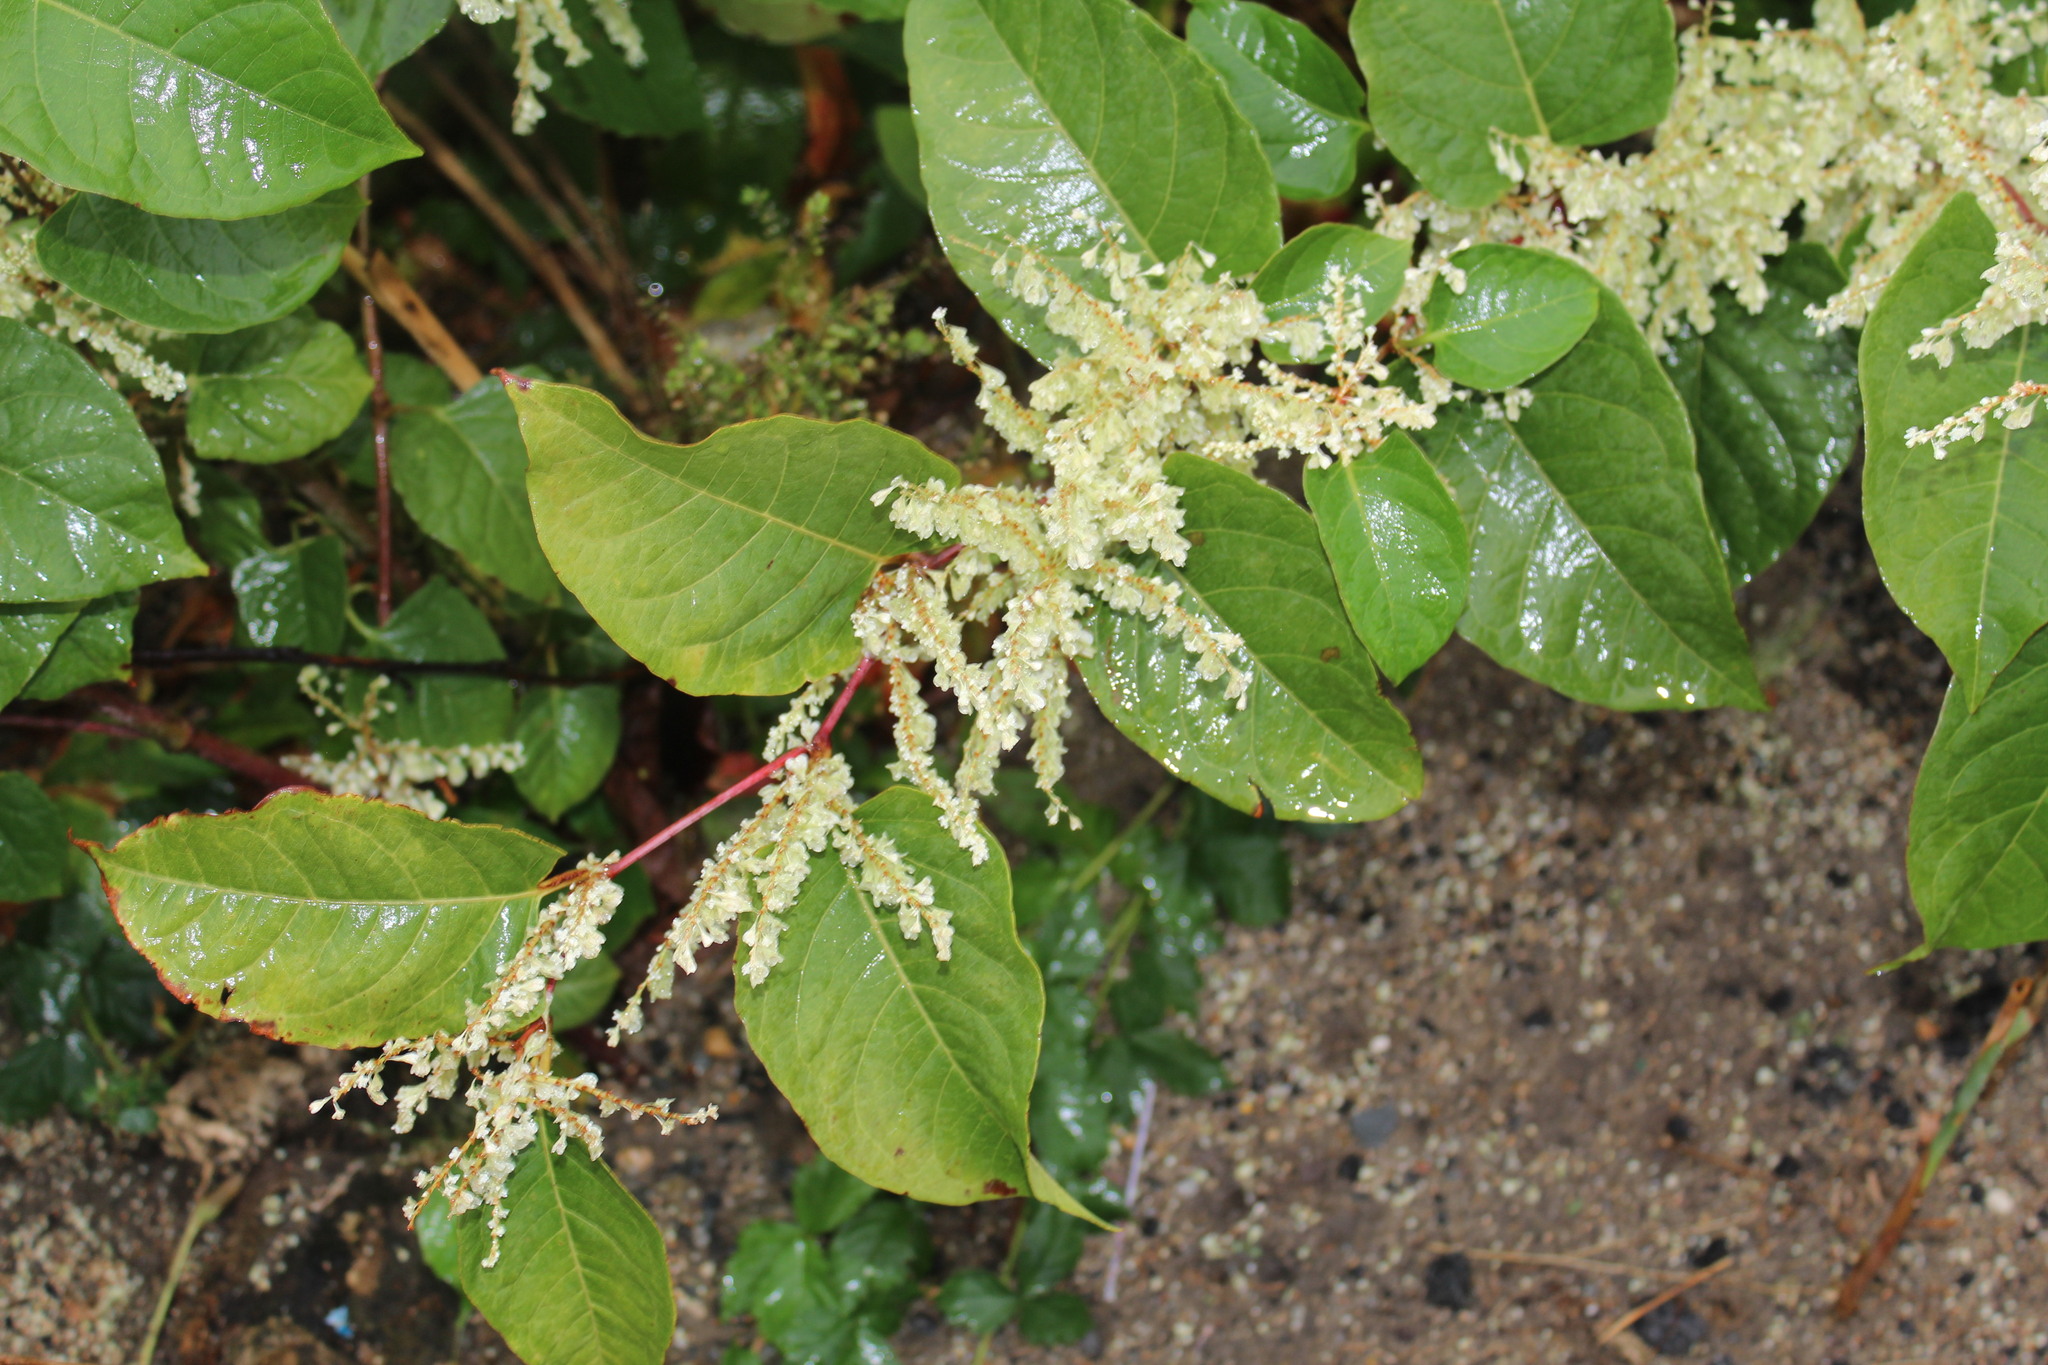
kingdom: Plantae
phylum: Tracheophyta
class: Magnoliopsida
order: Caryophyllales
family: Polygonaceae
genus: Reynoutria
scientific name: Reynoutria japonica
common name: Japanese knotweed
